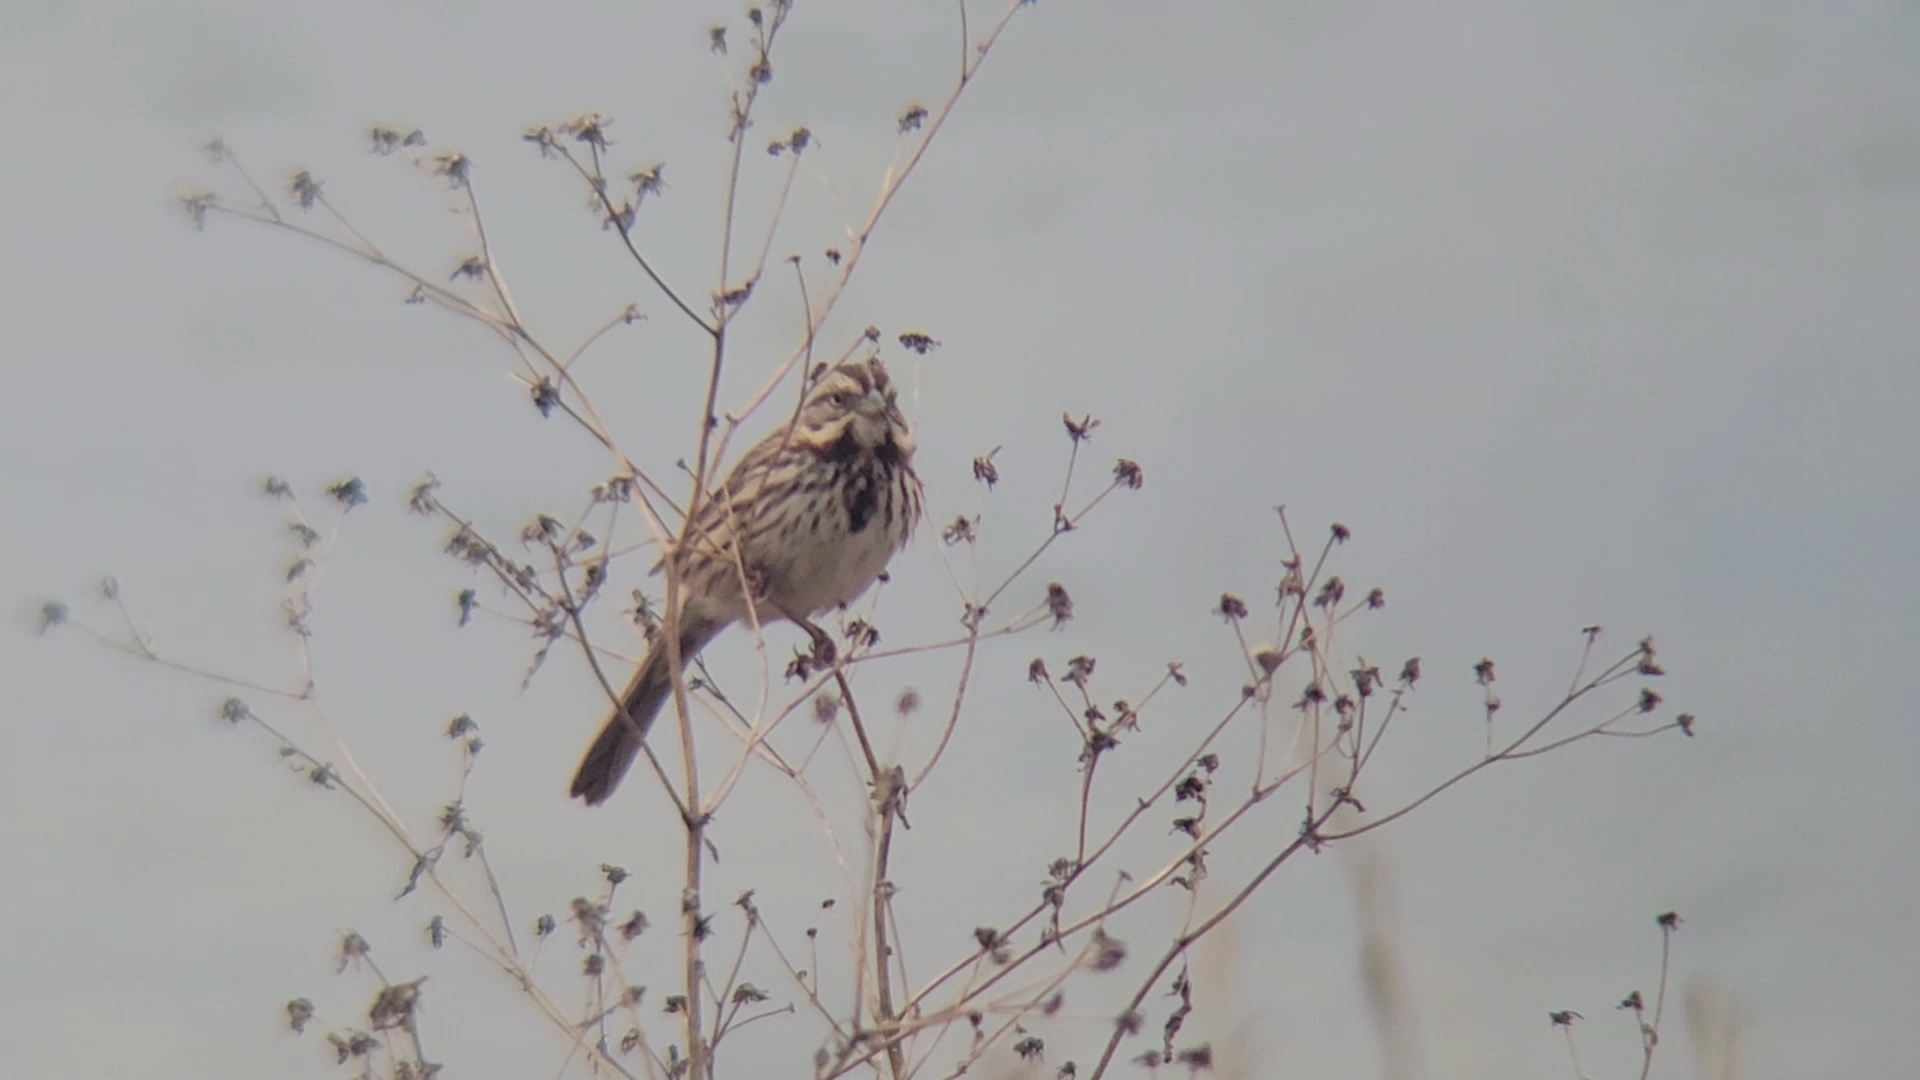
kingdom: Animalia
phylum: Chordata
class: Aves
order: Passeriformes
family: Passerellidae
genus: Melospiza
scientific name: Melospiza melodia
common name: Song sparrow
